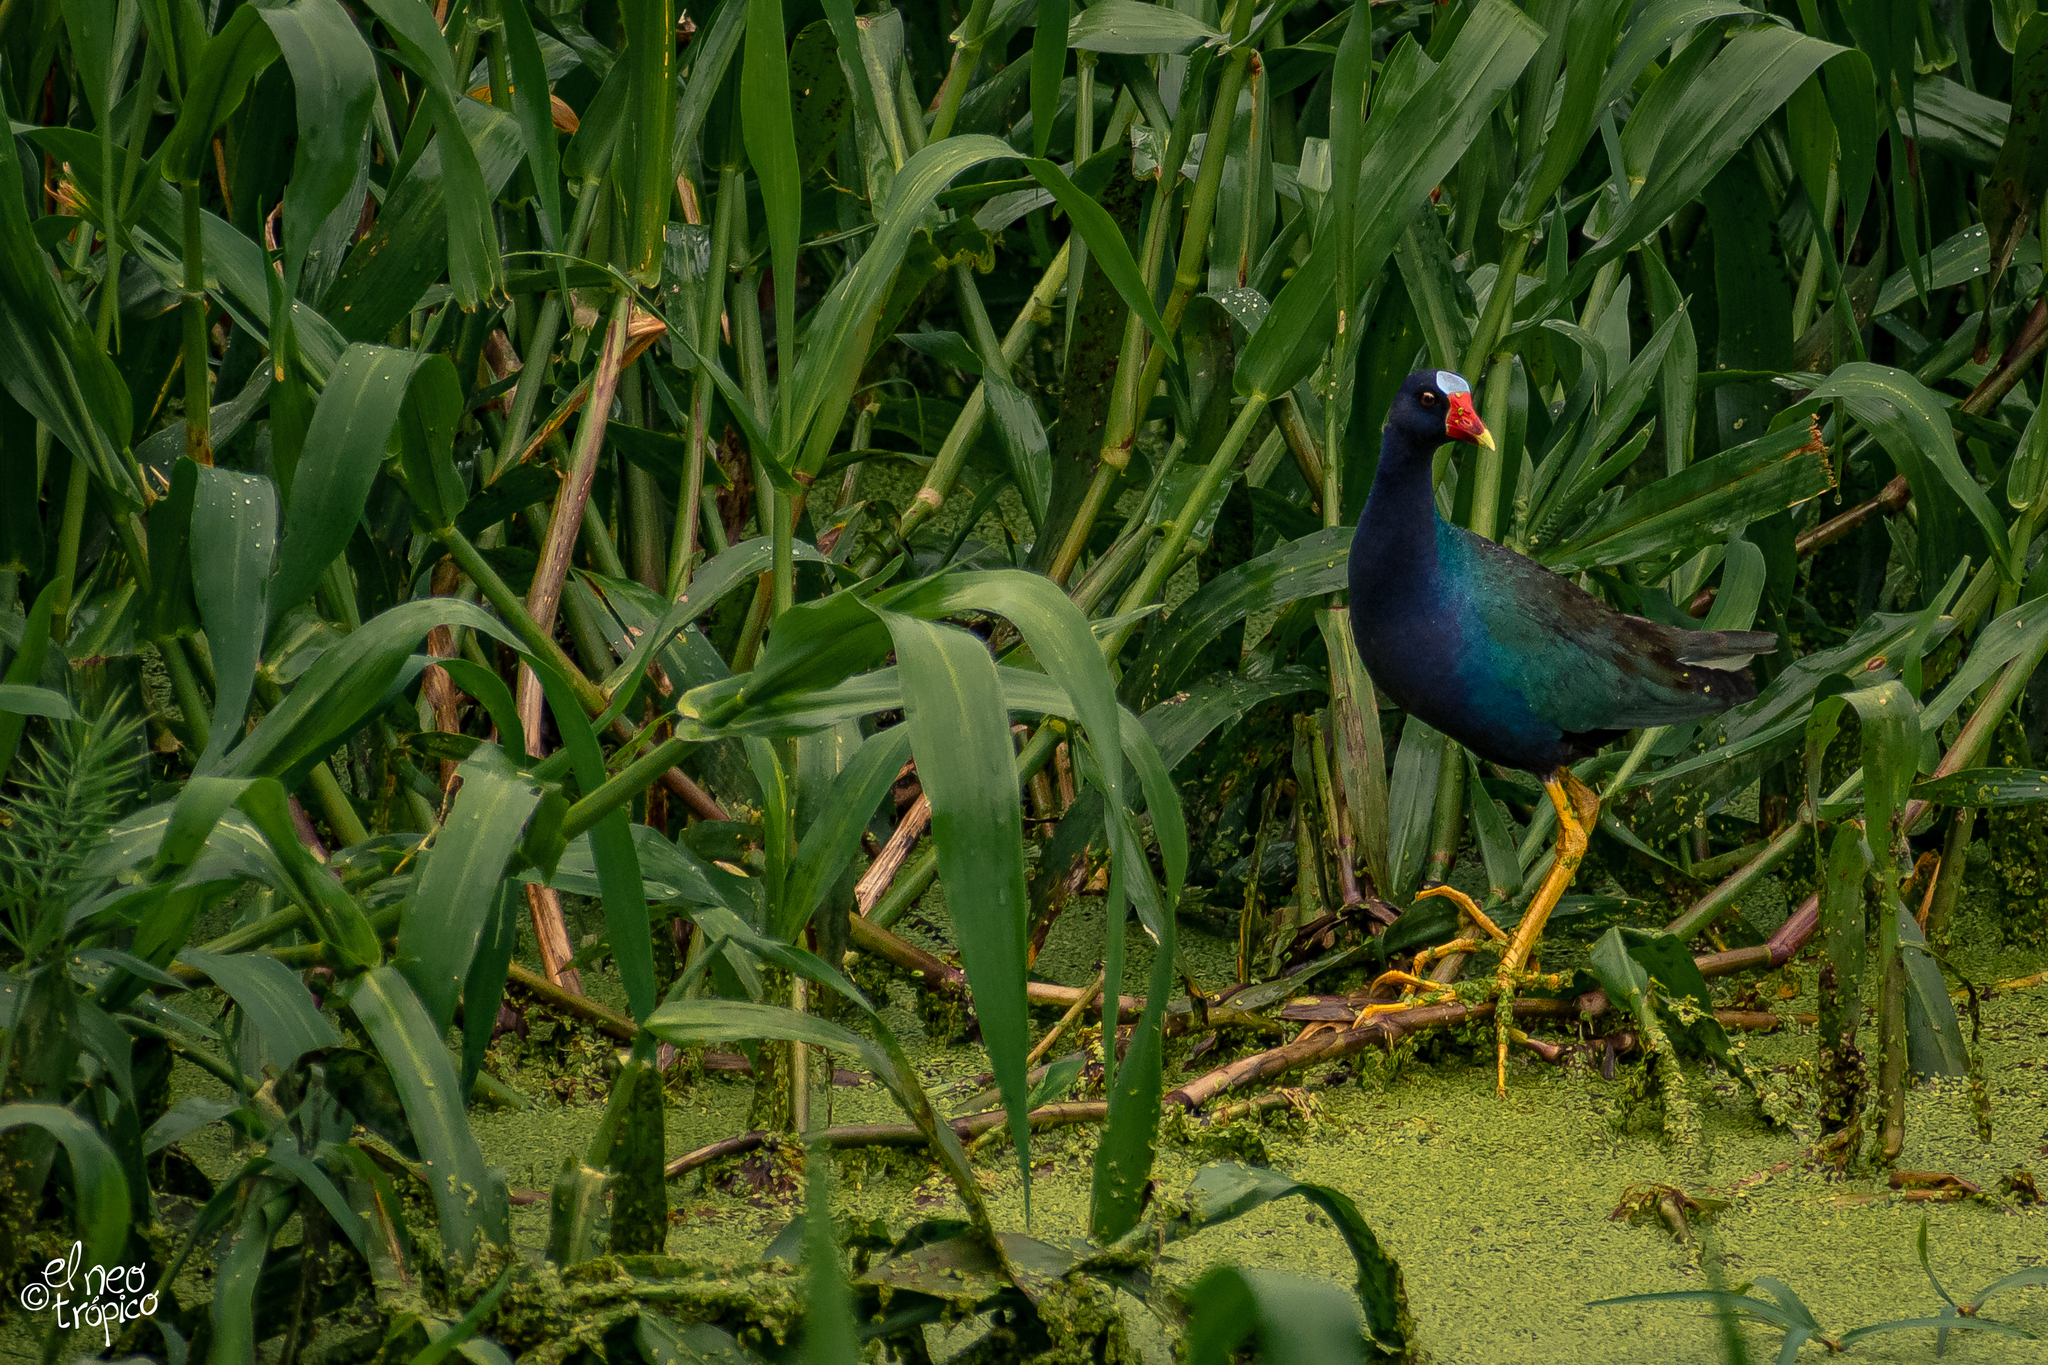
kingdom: Animalia
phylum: Chordata
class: Aves
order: Gruiformes
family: Rallidae
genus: Porphyrio
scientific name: Porphyrio martinica
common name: Purple gallinule
